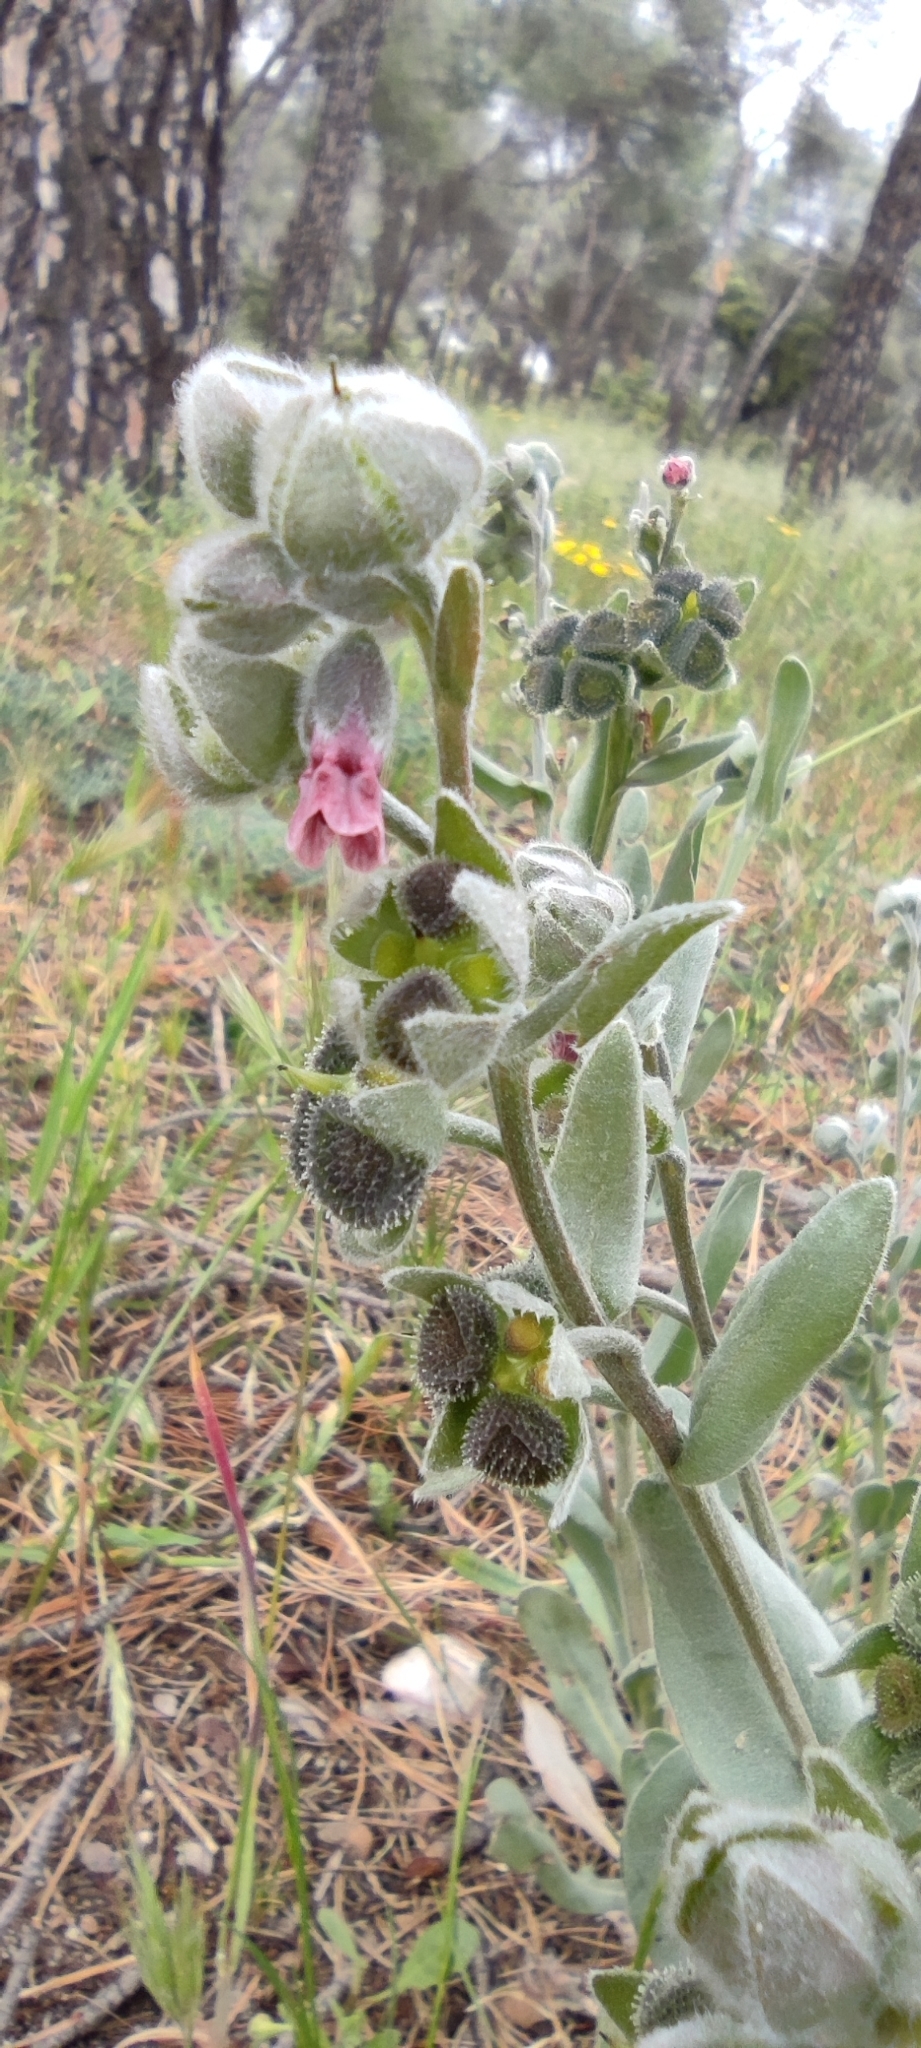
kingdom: Plantae
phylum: Tracheophyta
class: Magnoliopsida
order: Boraginales
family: Boraginaceae
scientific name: Boraginaceae
